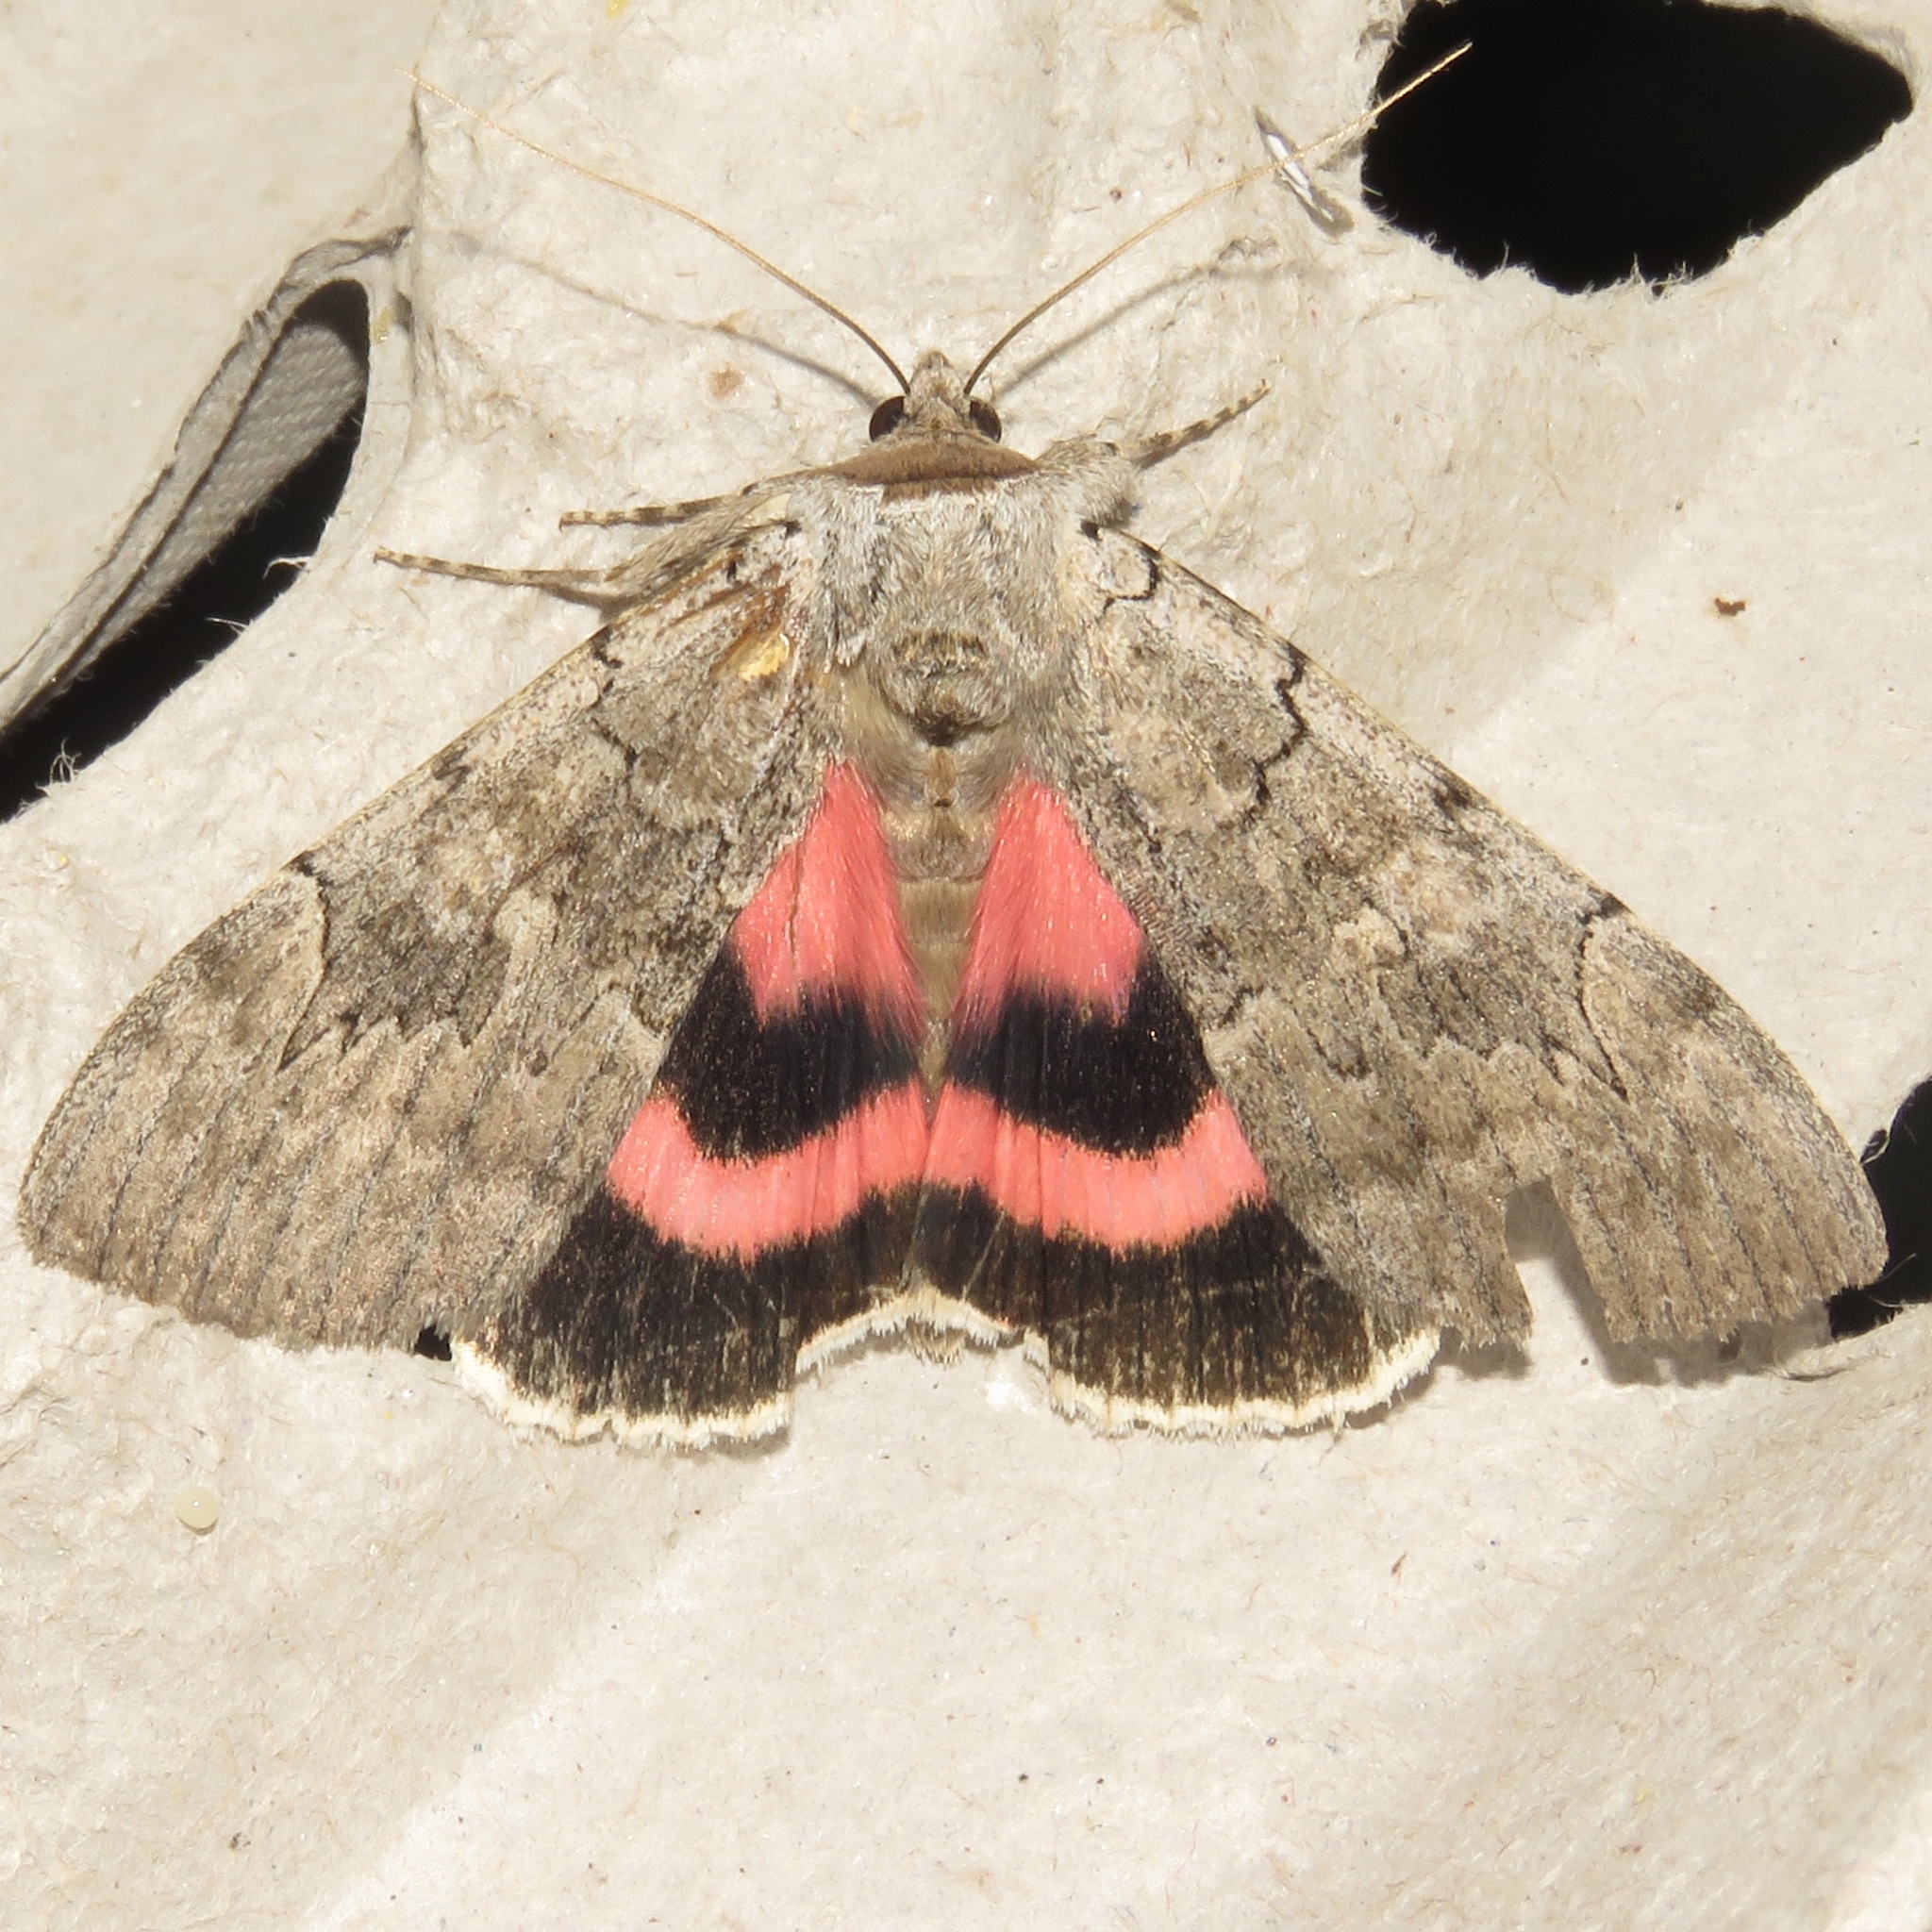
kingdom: Animalia
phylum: Arthropoda
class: Insecta
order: Lepidoptera
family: Erebidae
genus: Catocala
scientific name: Catocala concumbens
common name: Pink underwing
